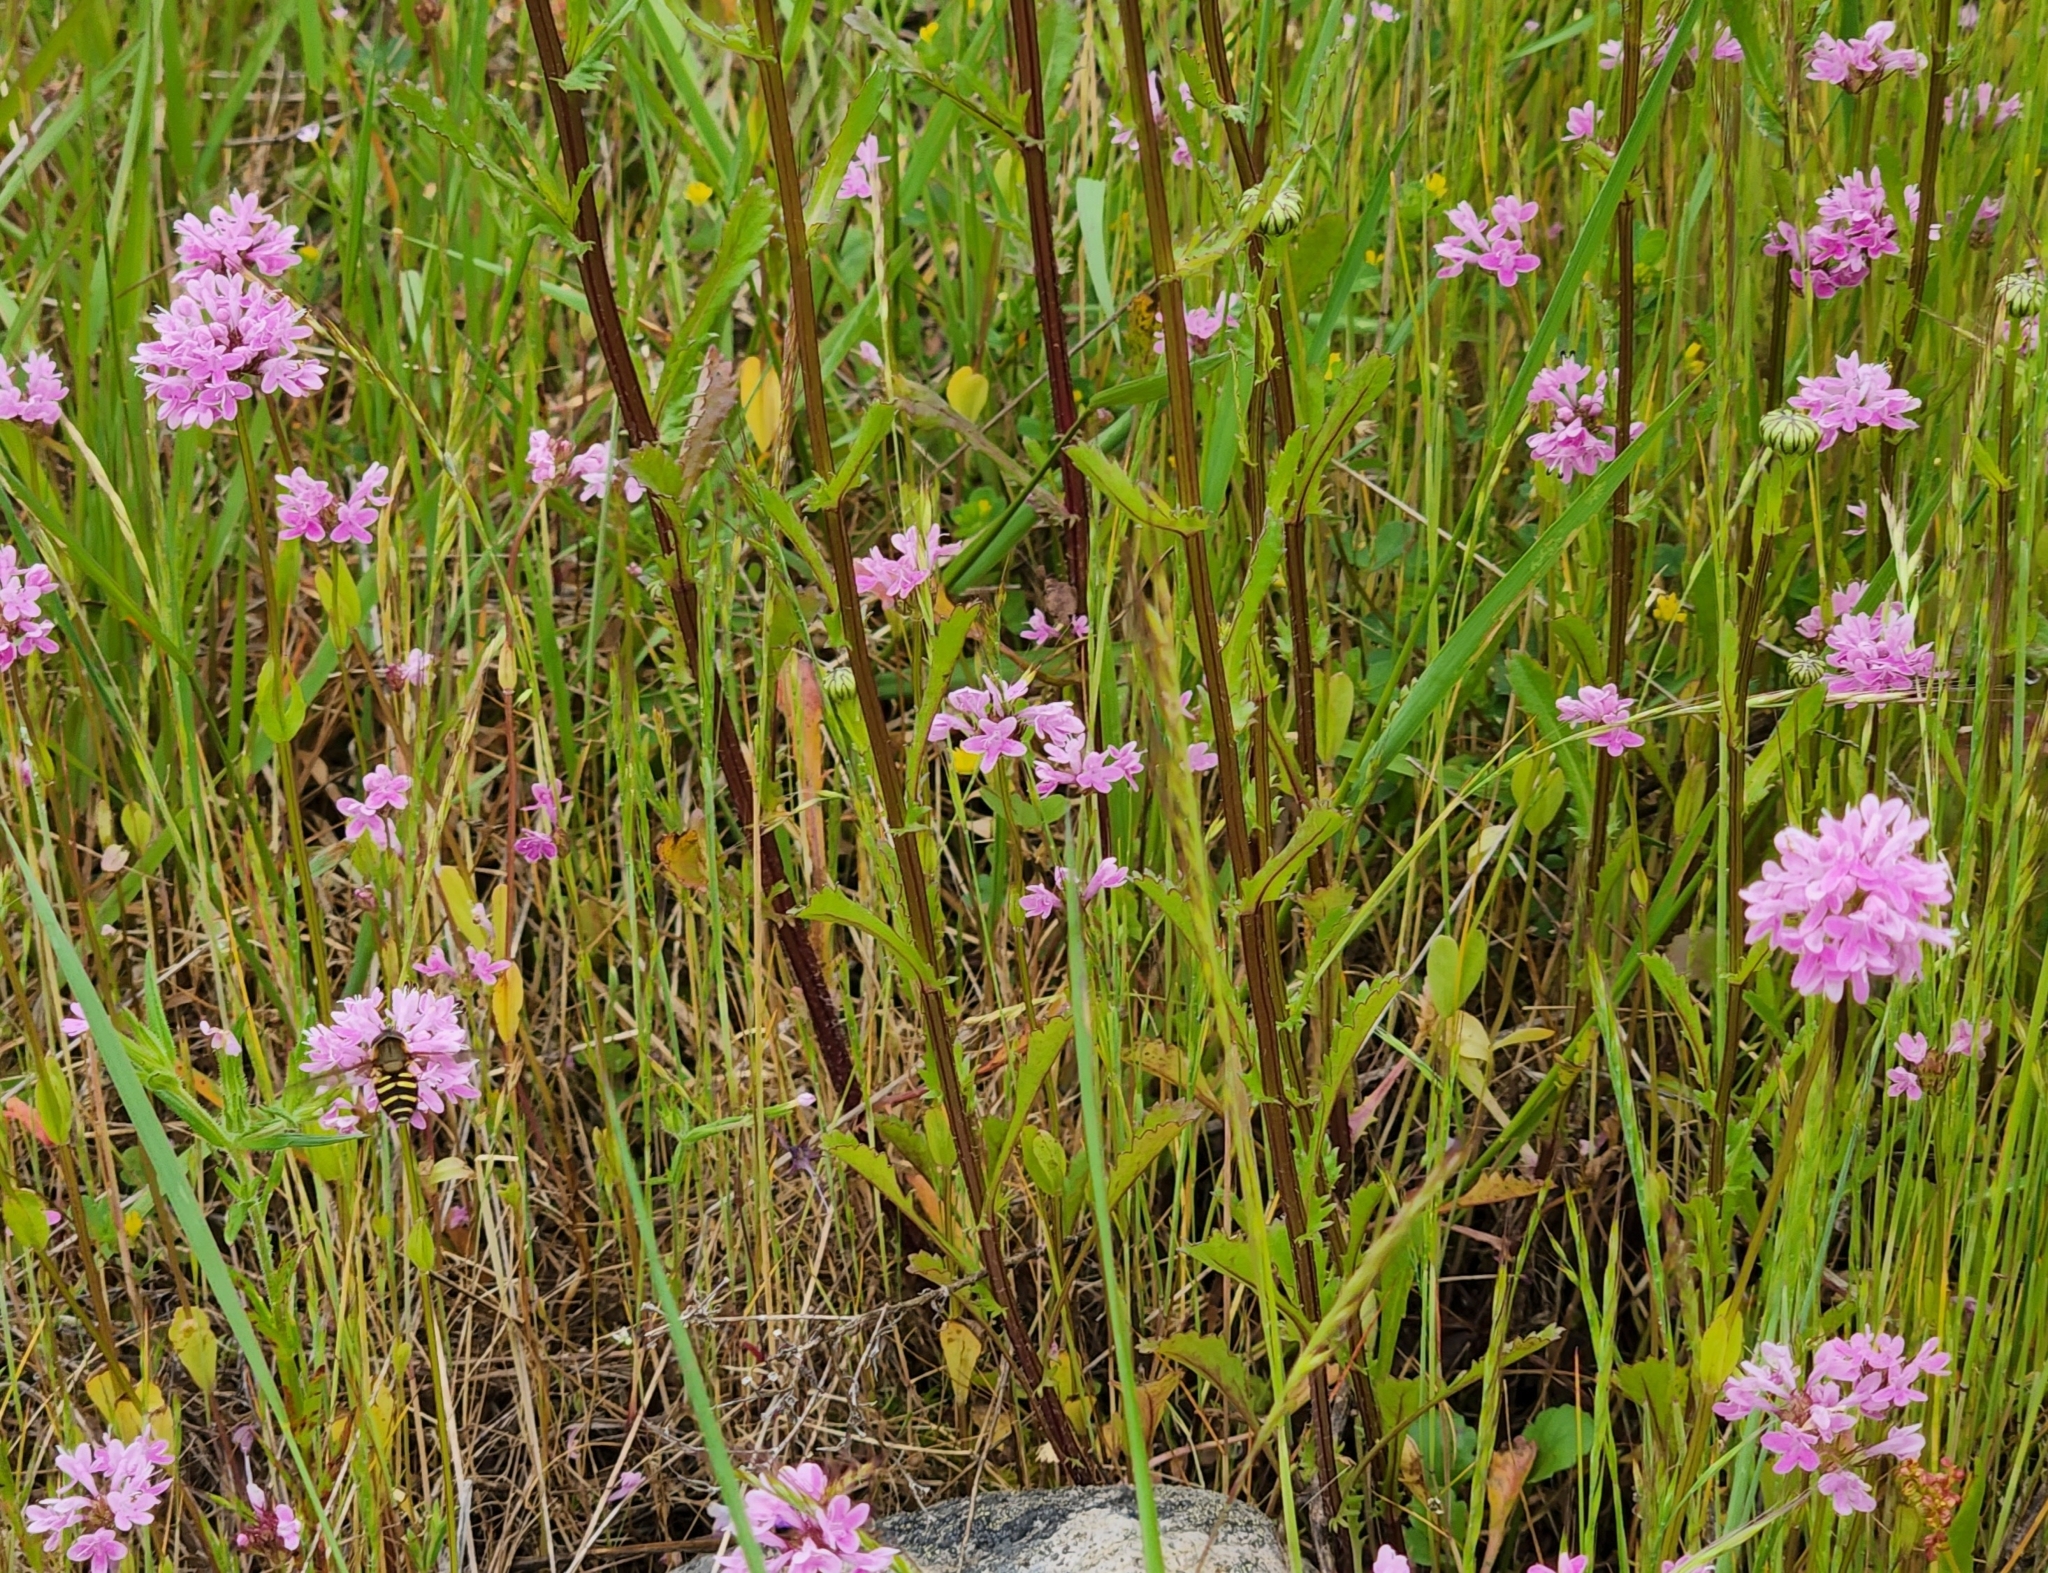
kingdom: Plantae
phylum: Tracheophyta
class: Magnoliopsida
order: Dipsacales
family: Caprifoliaceae
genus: Plectritis
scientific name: Plectritis congesta
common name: Pink plectritis
